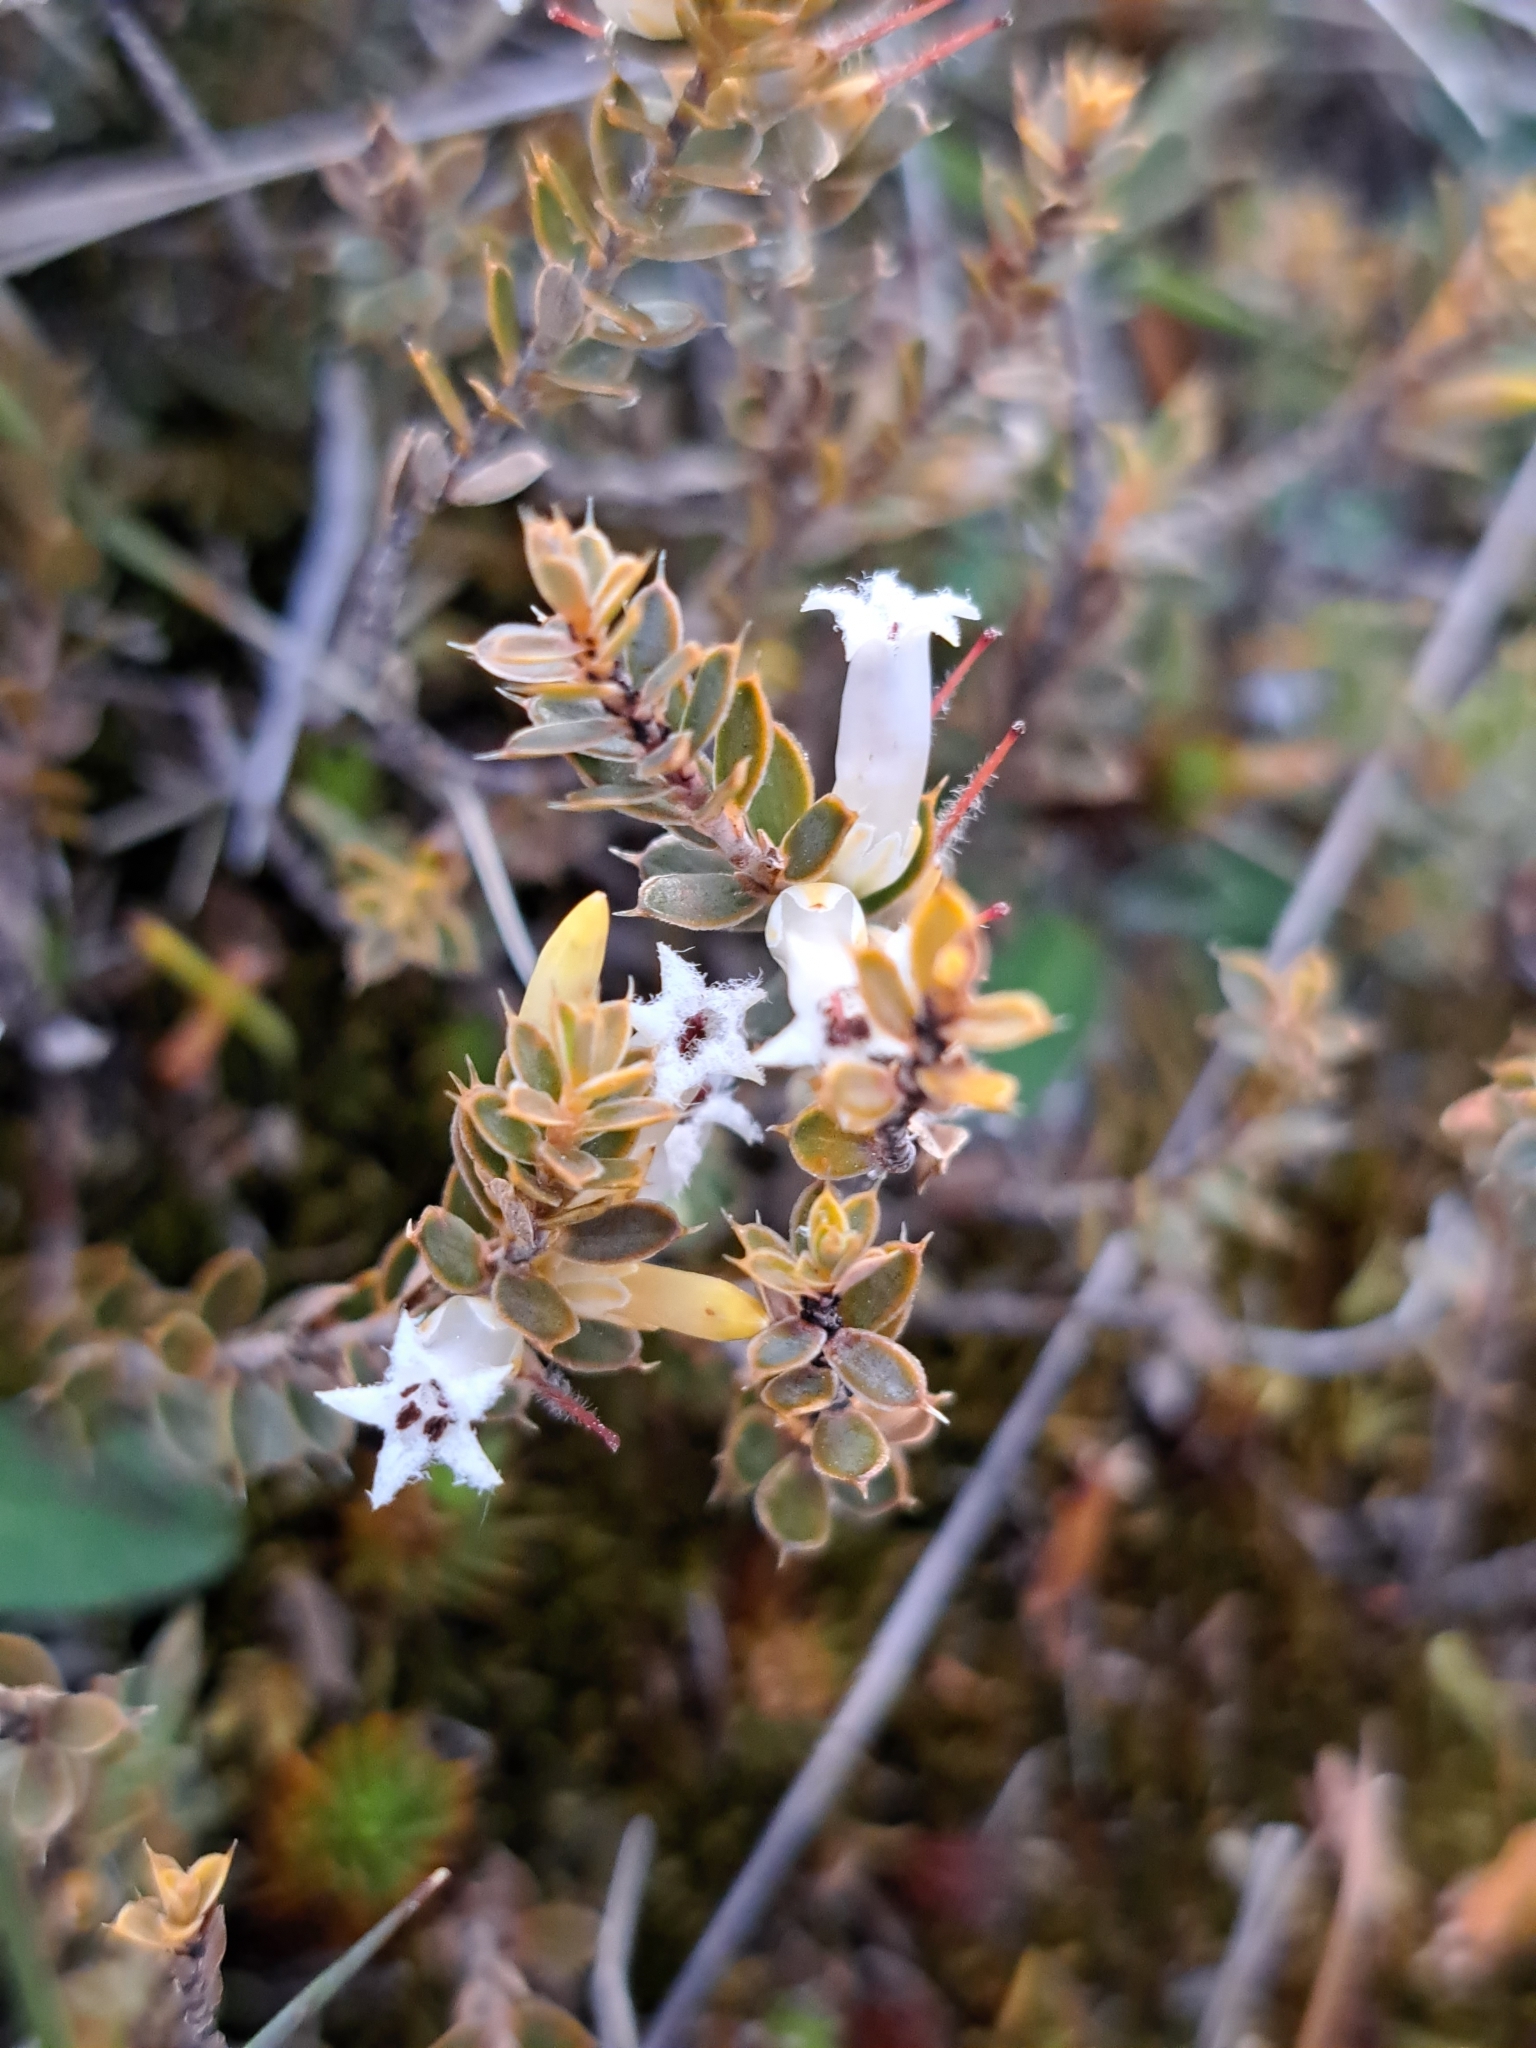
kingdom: Plantae
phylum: Tracheophyta
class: Magnoliopsida
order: Ericales
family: Ericaceae
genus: Styphelia
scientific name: Styphelia nesophila
